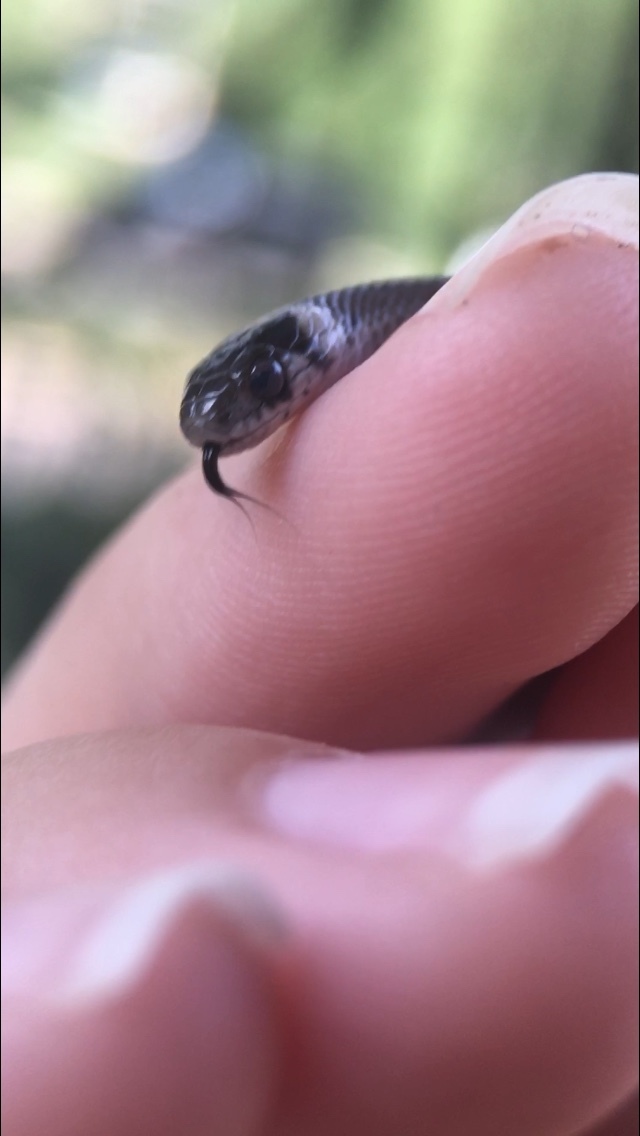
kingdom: Animalia
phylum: Chordata
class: Squamata
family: Colubridae
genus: Storeria
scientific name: Storeria dekayi
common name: (dekay’s) brown snake
